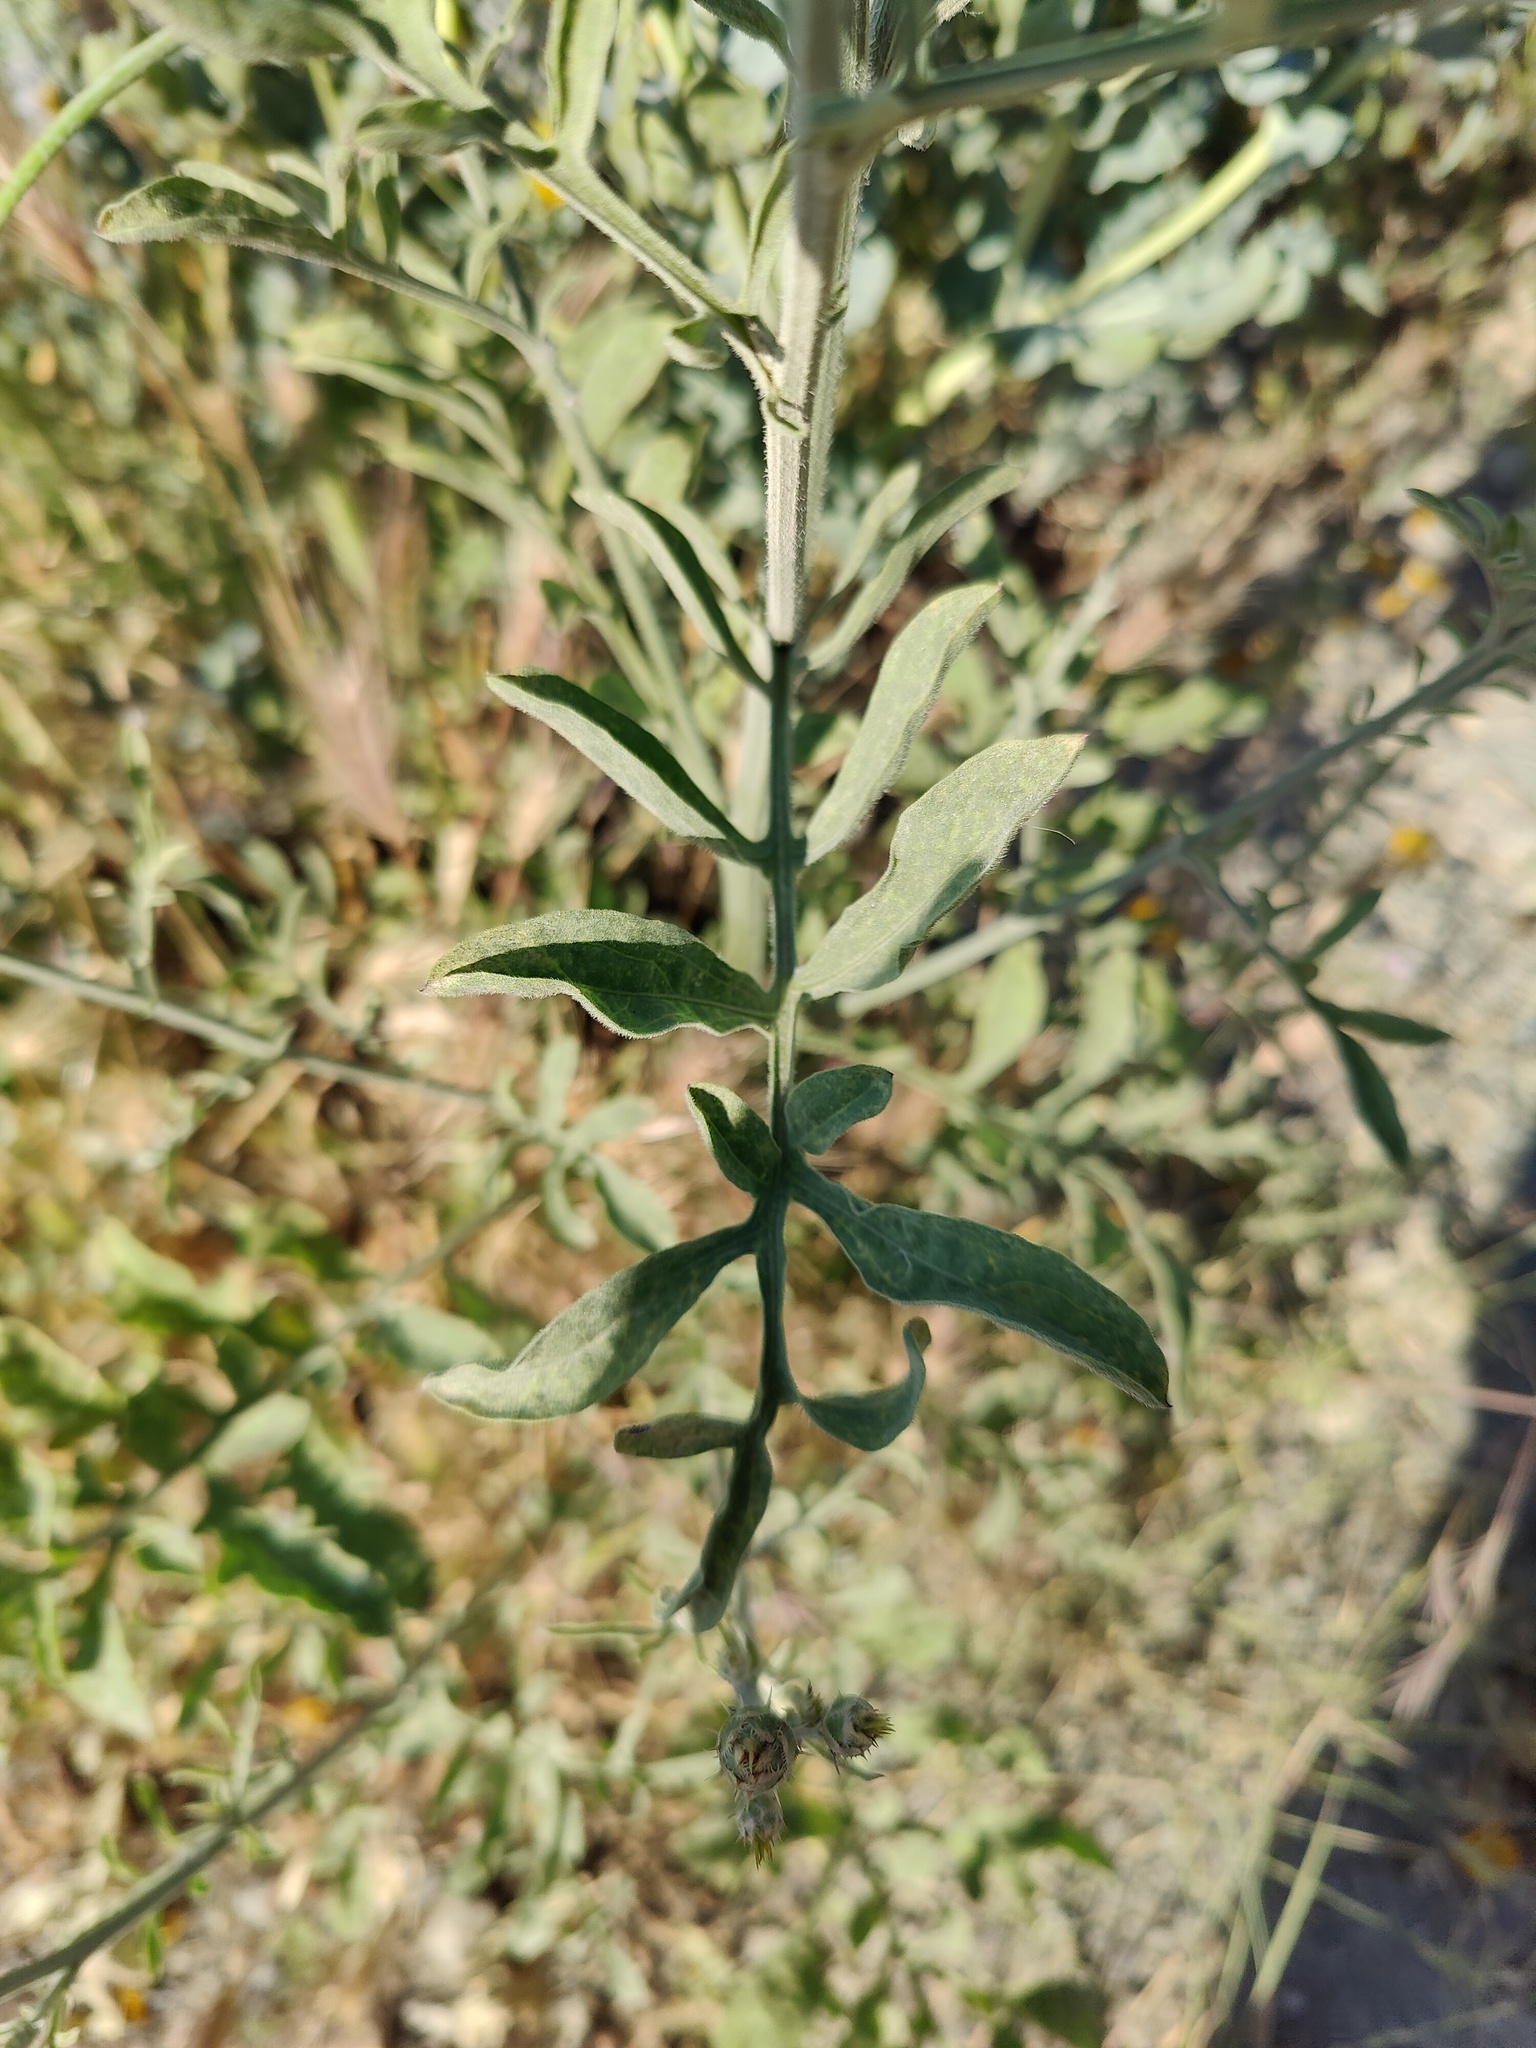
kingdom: Plantae
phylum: Tracheophyta
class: Magnoliopsida
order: Asterales
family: Asteraceae
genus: Centaurea
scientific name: Centaurea salonitana
